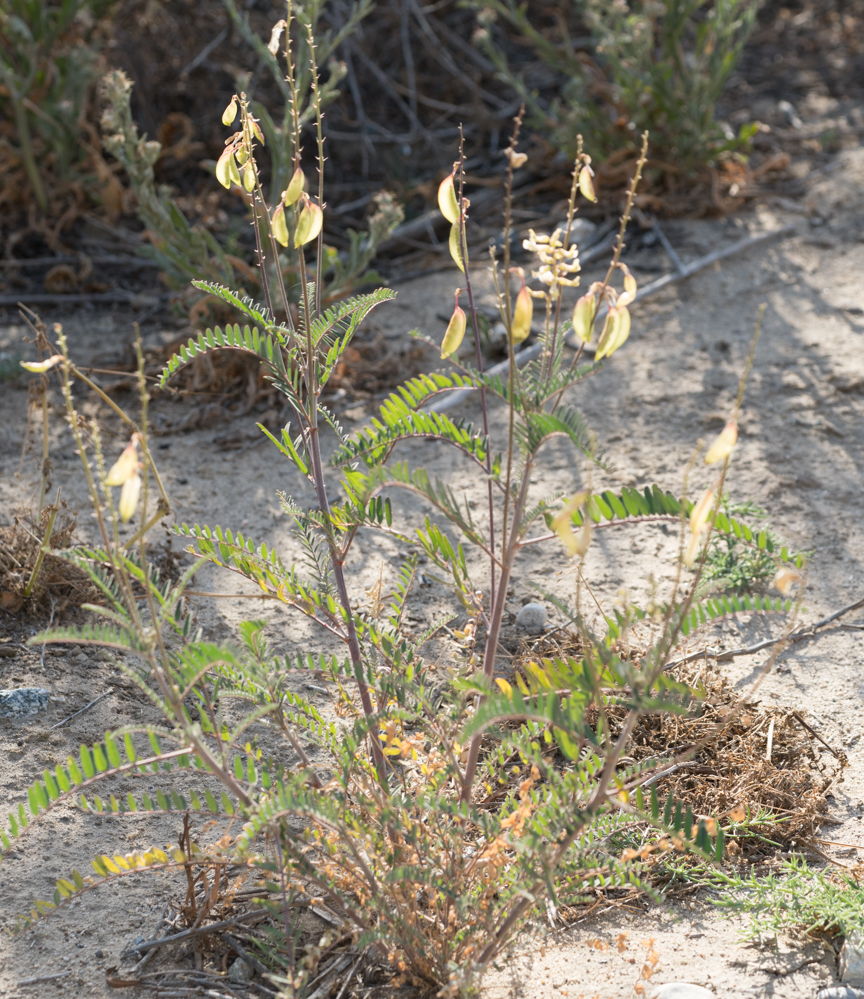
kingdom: Plantae
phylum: Tracheophyta
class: Magnoliopsida
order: Fabales
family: Fabaceae
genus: Astragalus
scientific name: Astragalus trichopodus
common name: Santa barbara milk-vetch
